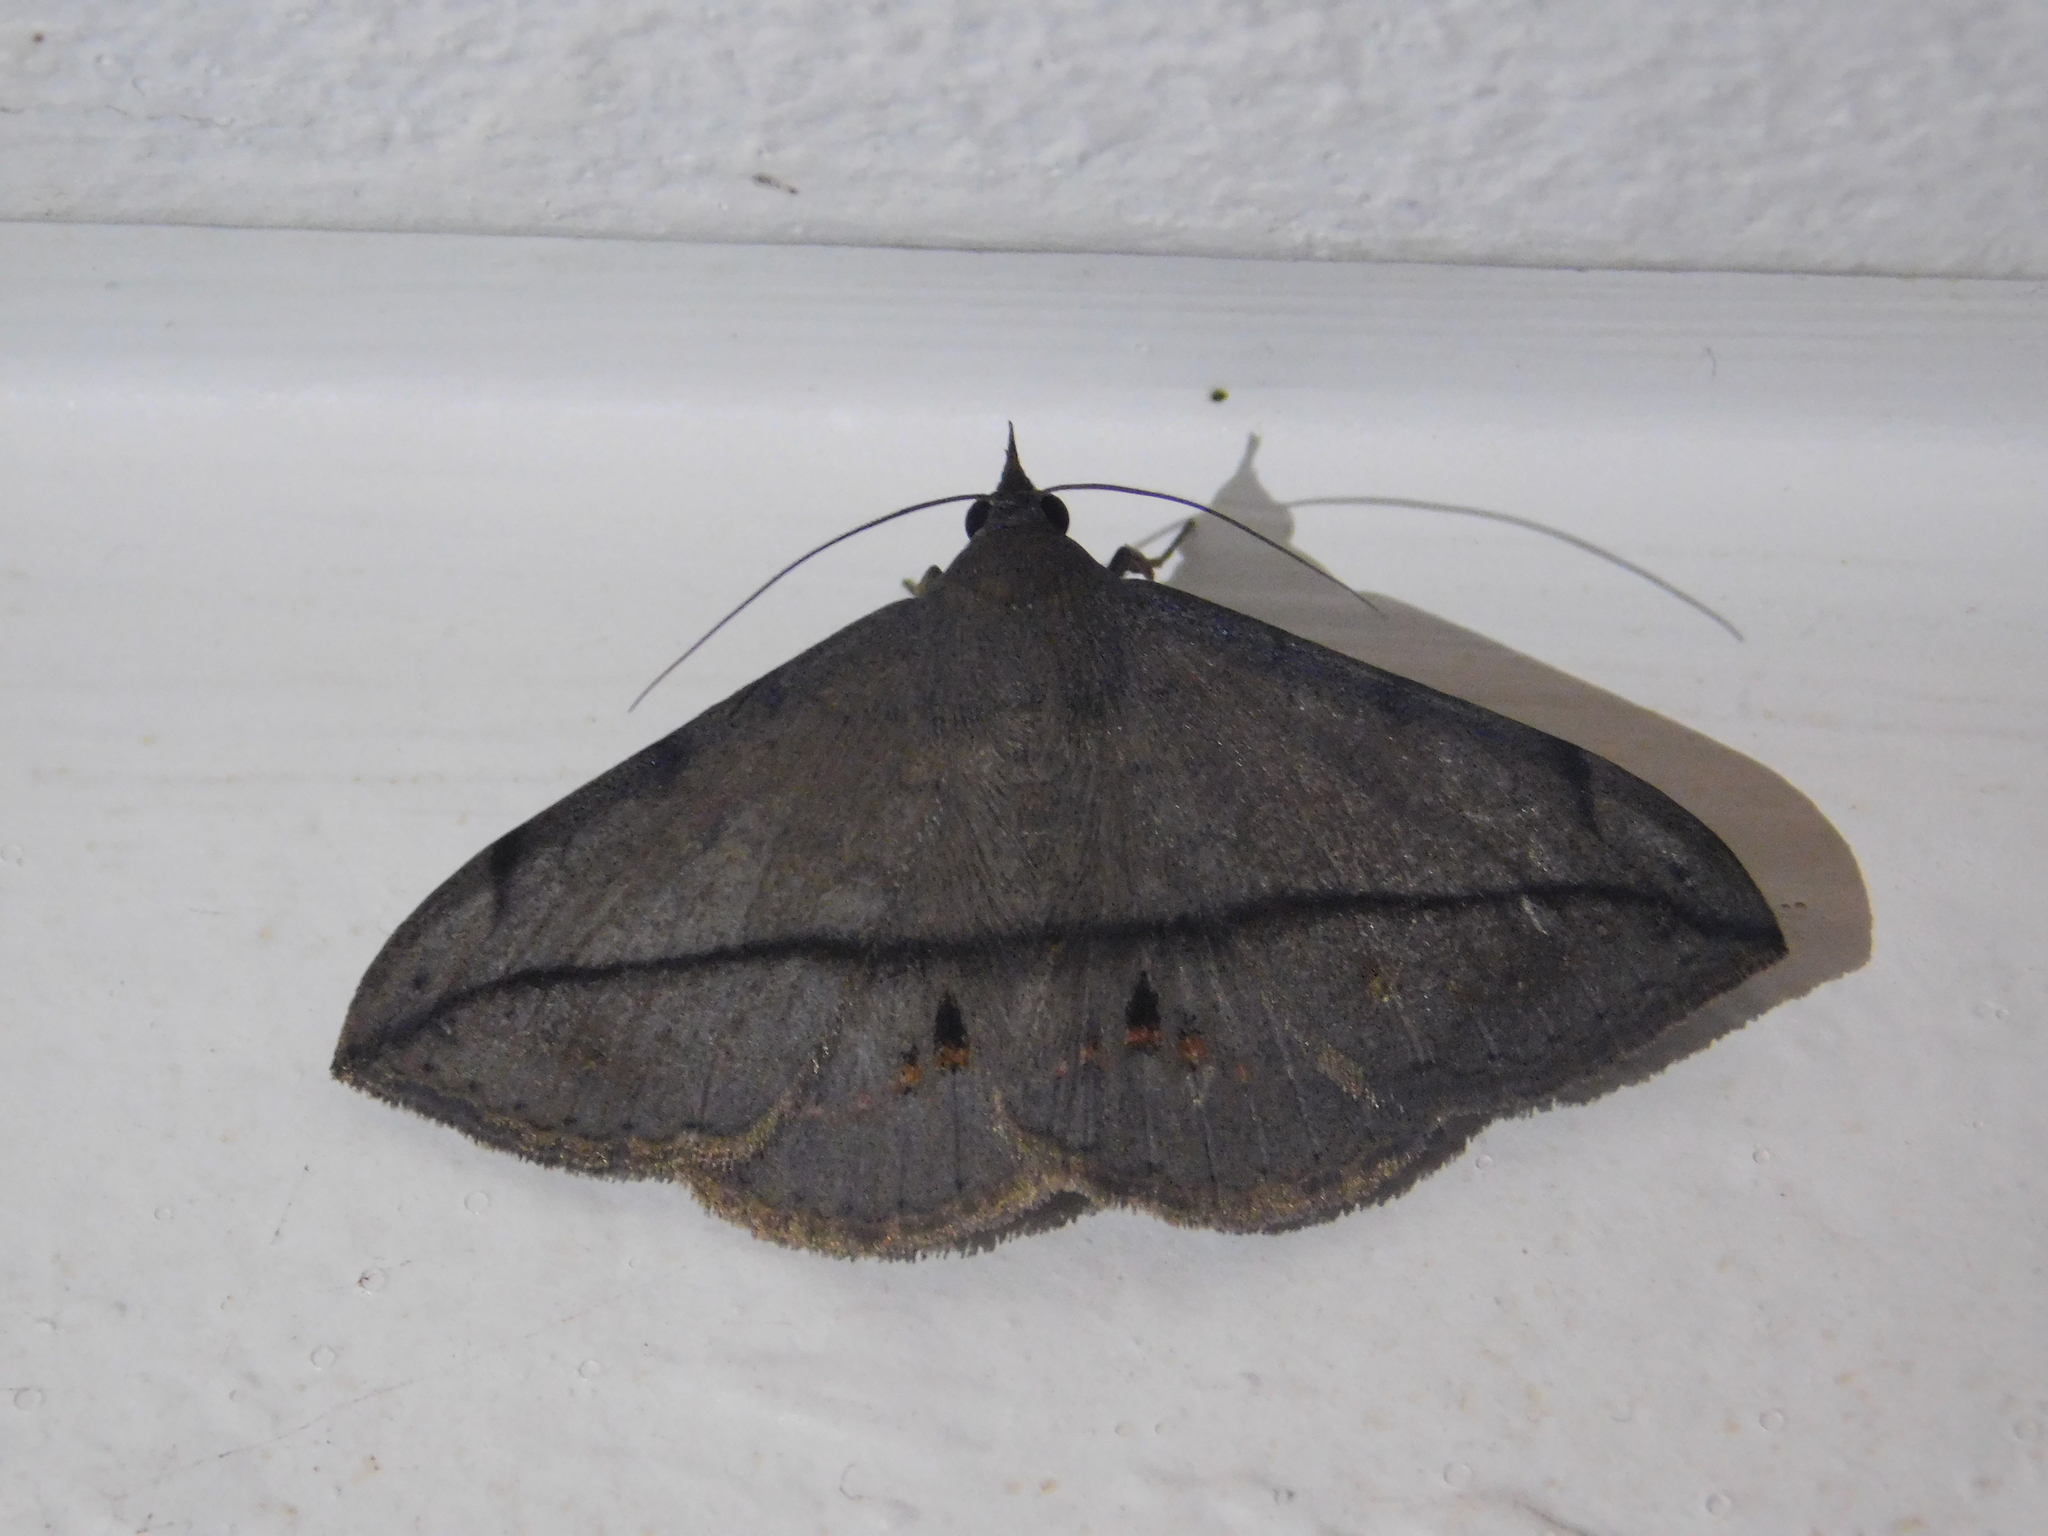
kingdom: Animalia
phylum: Arthropoda
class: Insecta
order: Lepidoptera
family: Erebidae
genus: Anticarsia
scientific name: Anticarsia gemmatalis
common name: Cutworm moth
